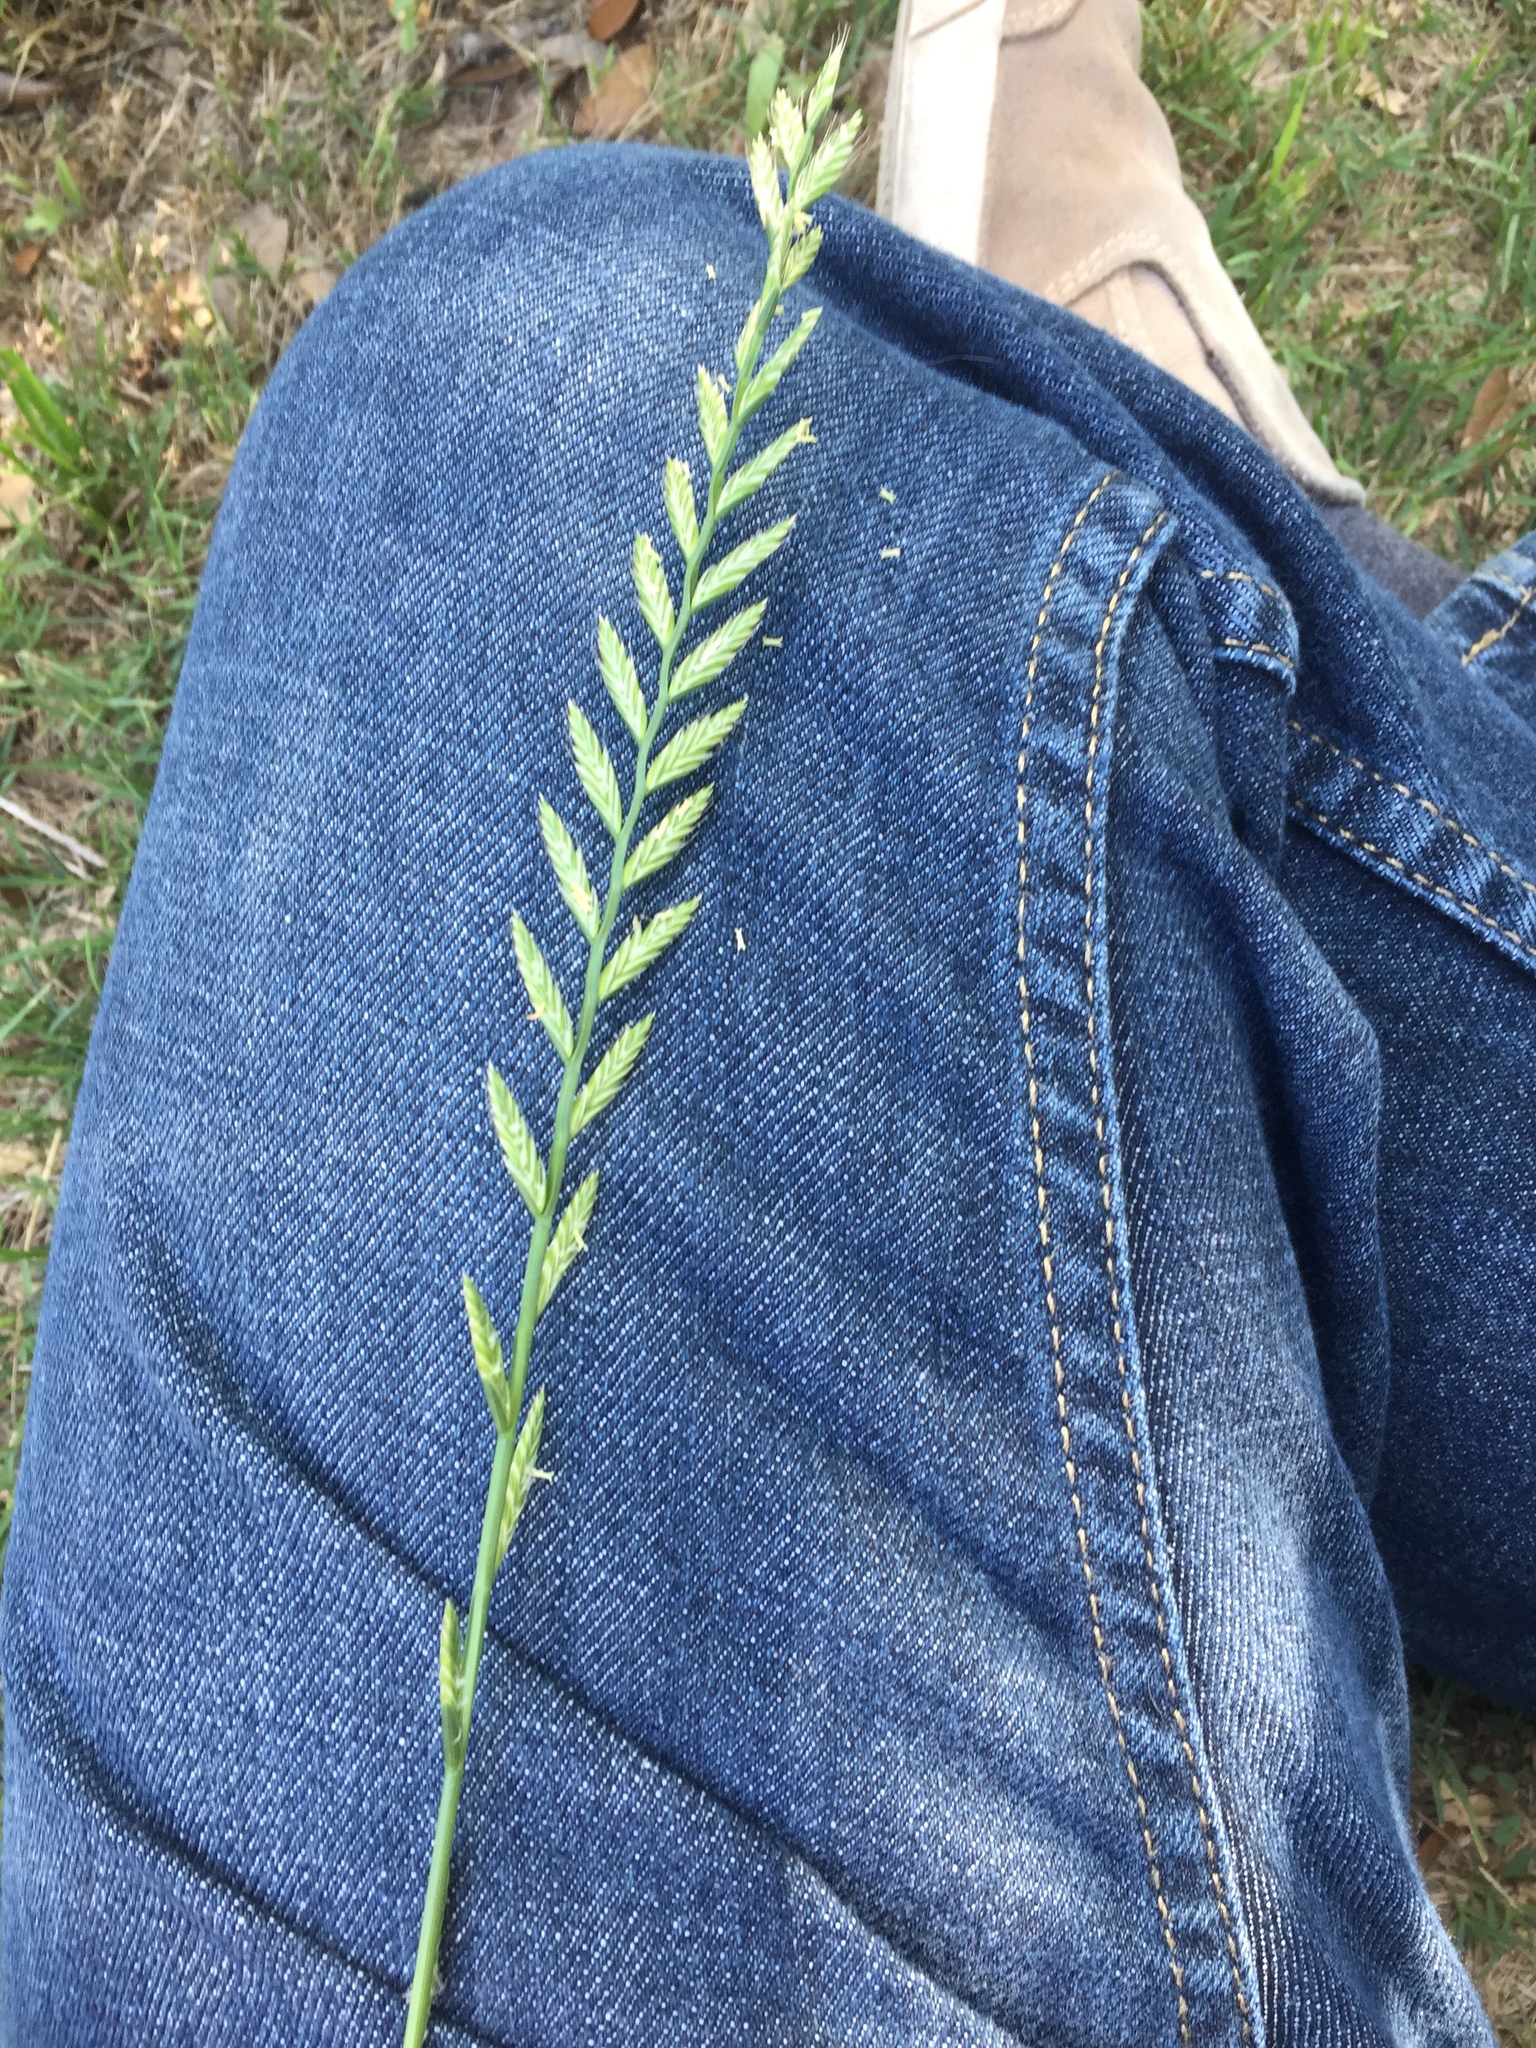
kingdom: Plantae
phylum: Tracheophyta
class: Liliopsida
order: Poales
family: Poaceae
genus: Lolium
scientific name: Lolium perenne
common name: Perennial ryegrass
